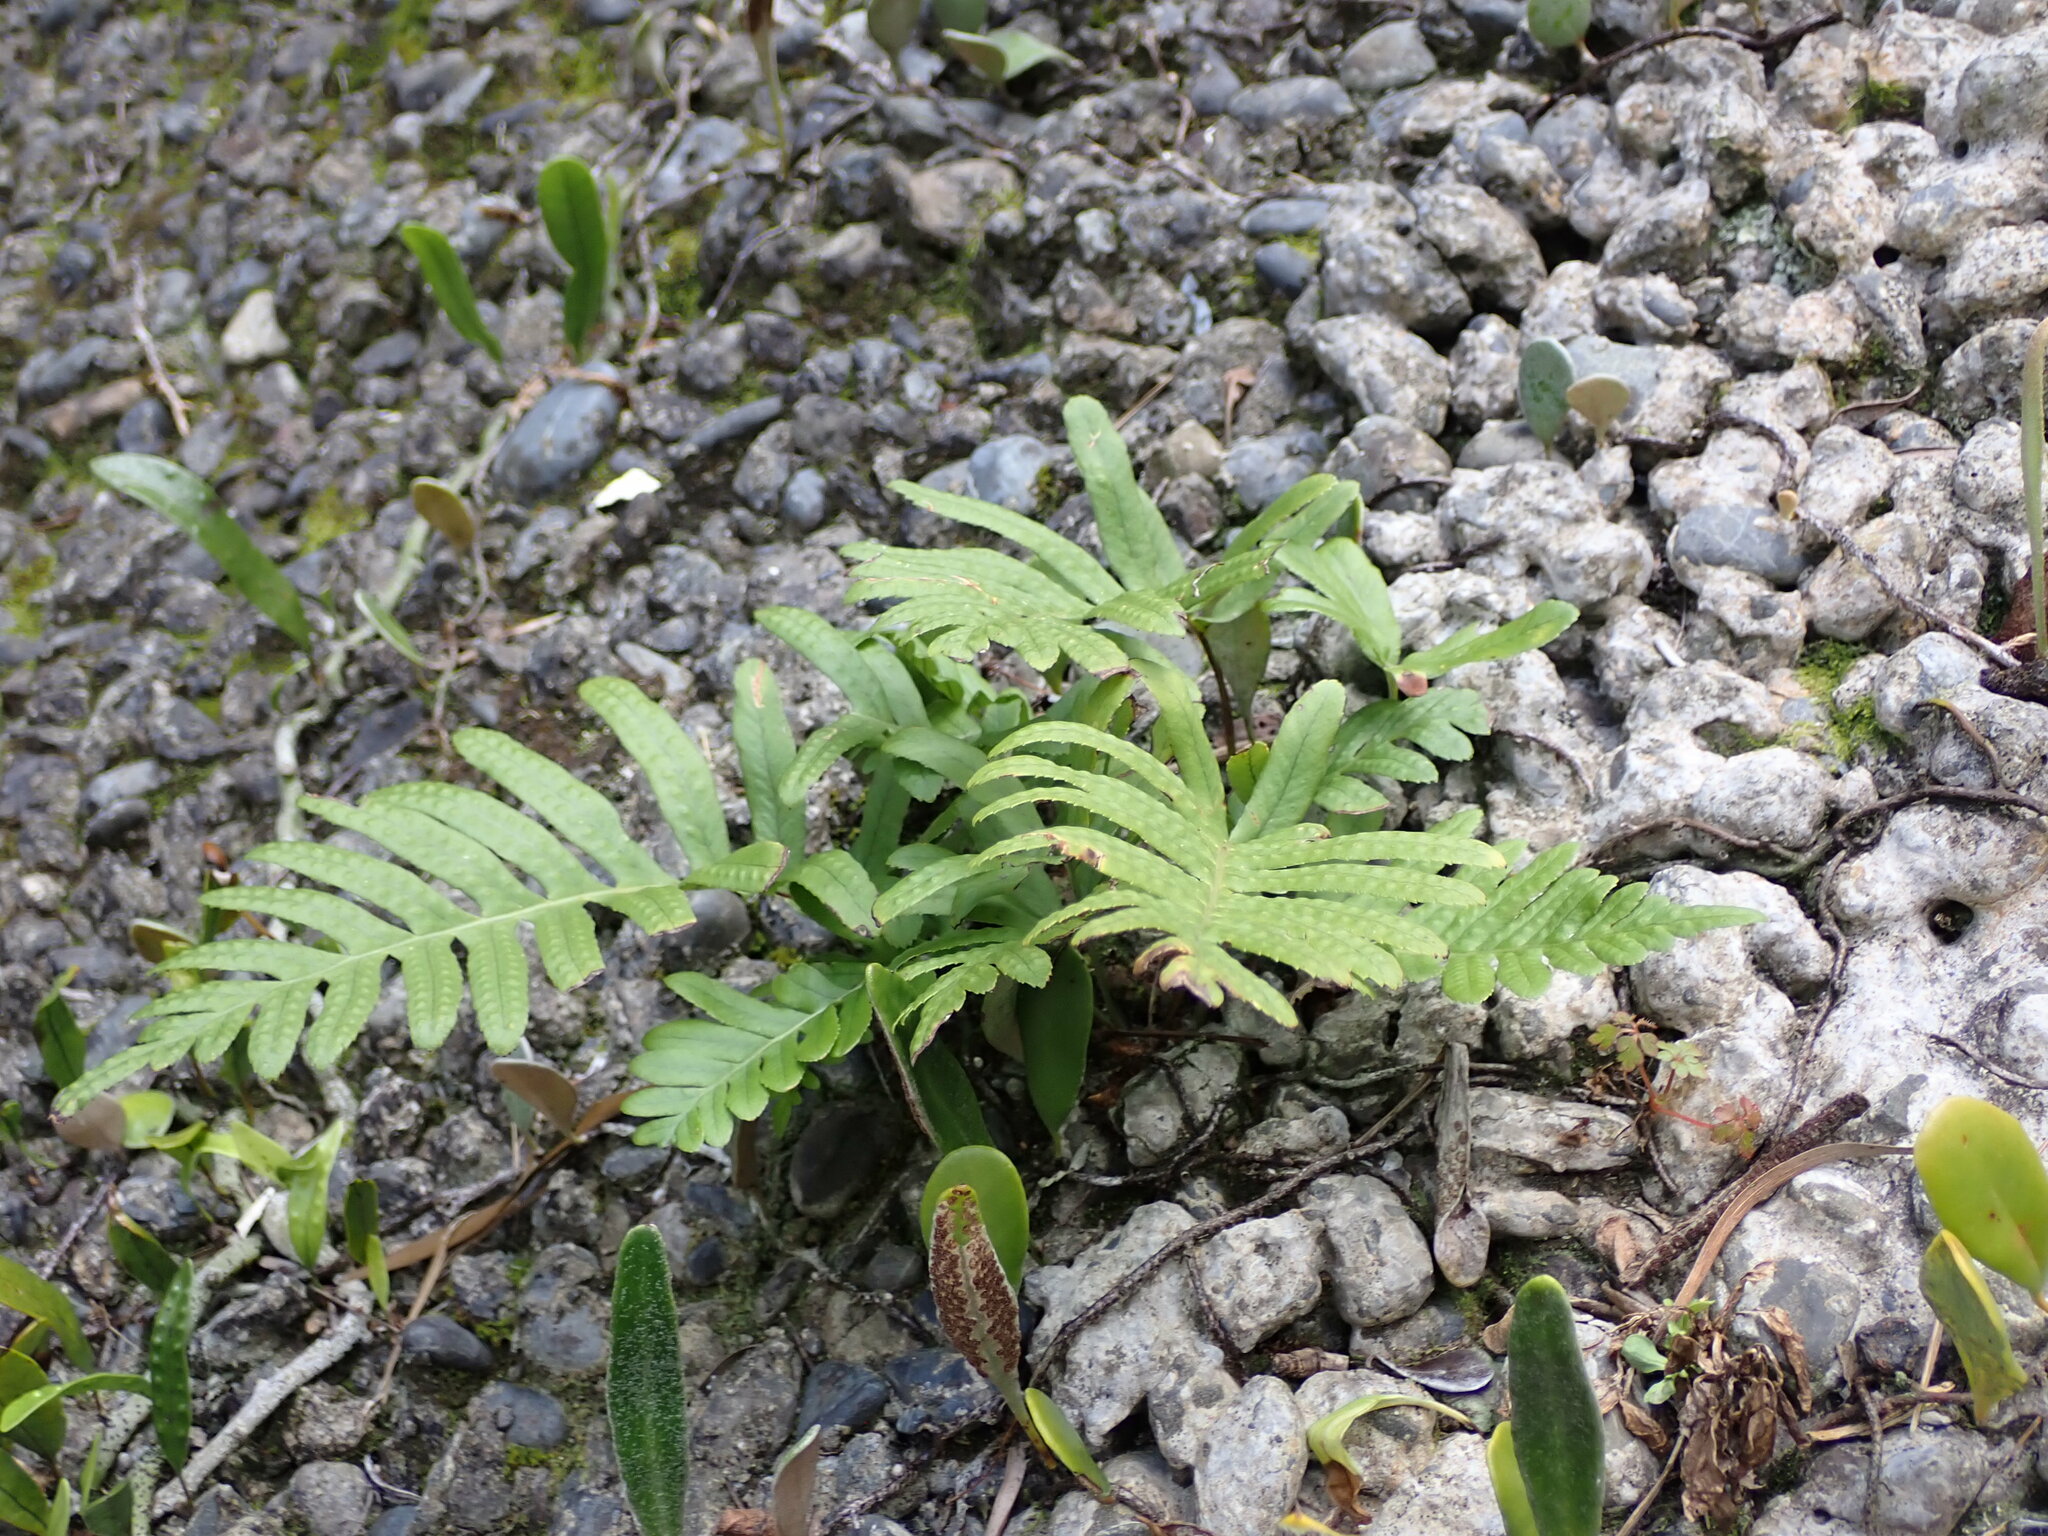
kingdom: Plantae
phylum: Tracheophyta
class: Polypodiopsida
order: Polypodiales
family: Polypodiaceae
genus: Polypodium
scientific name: Polypodium vulgare
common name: Common polypody
